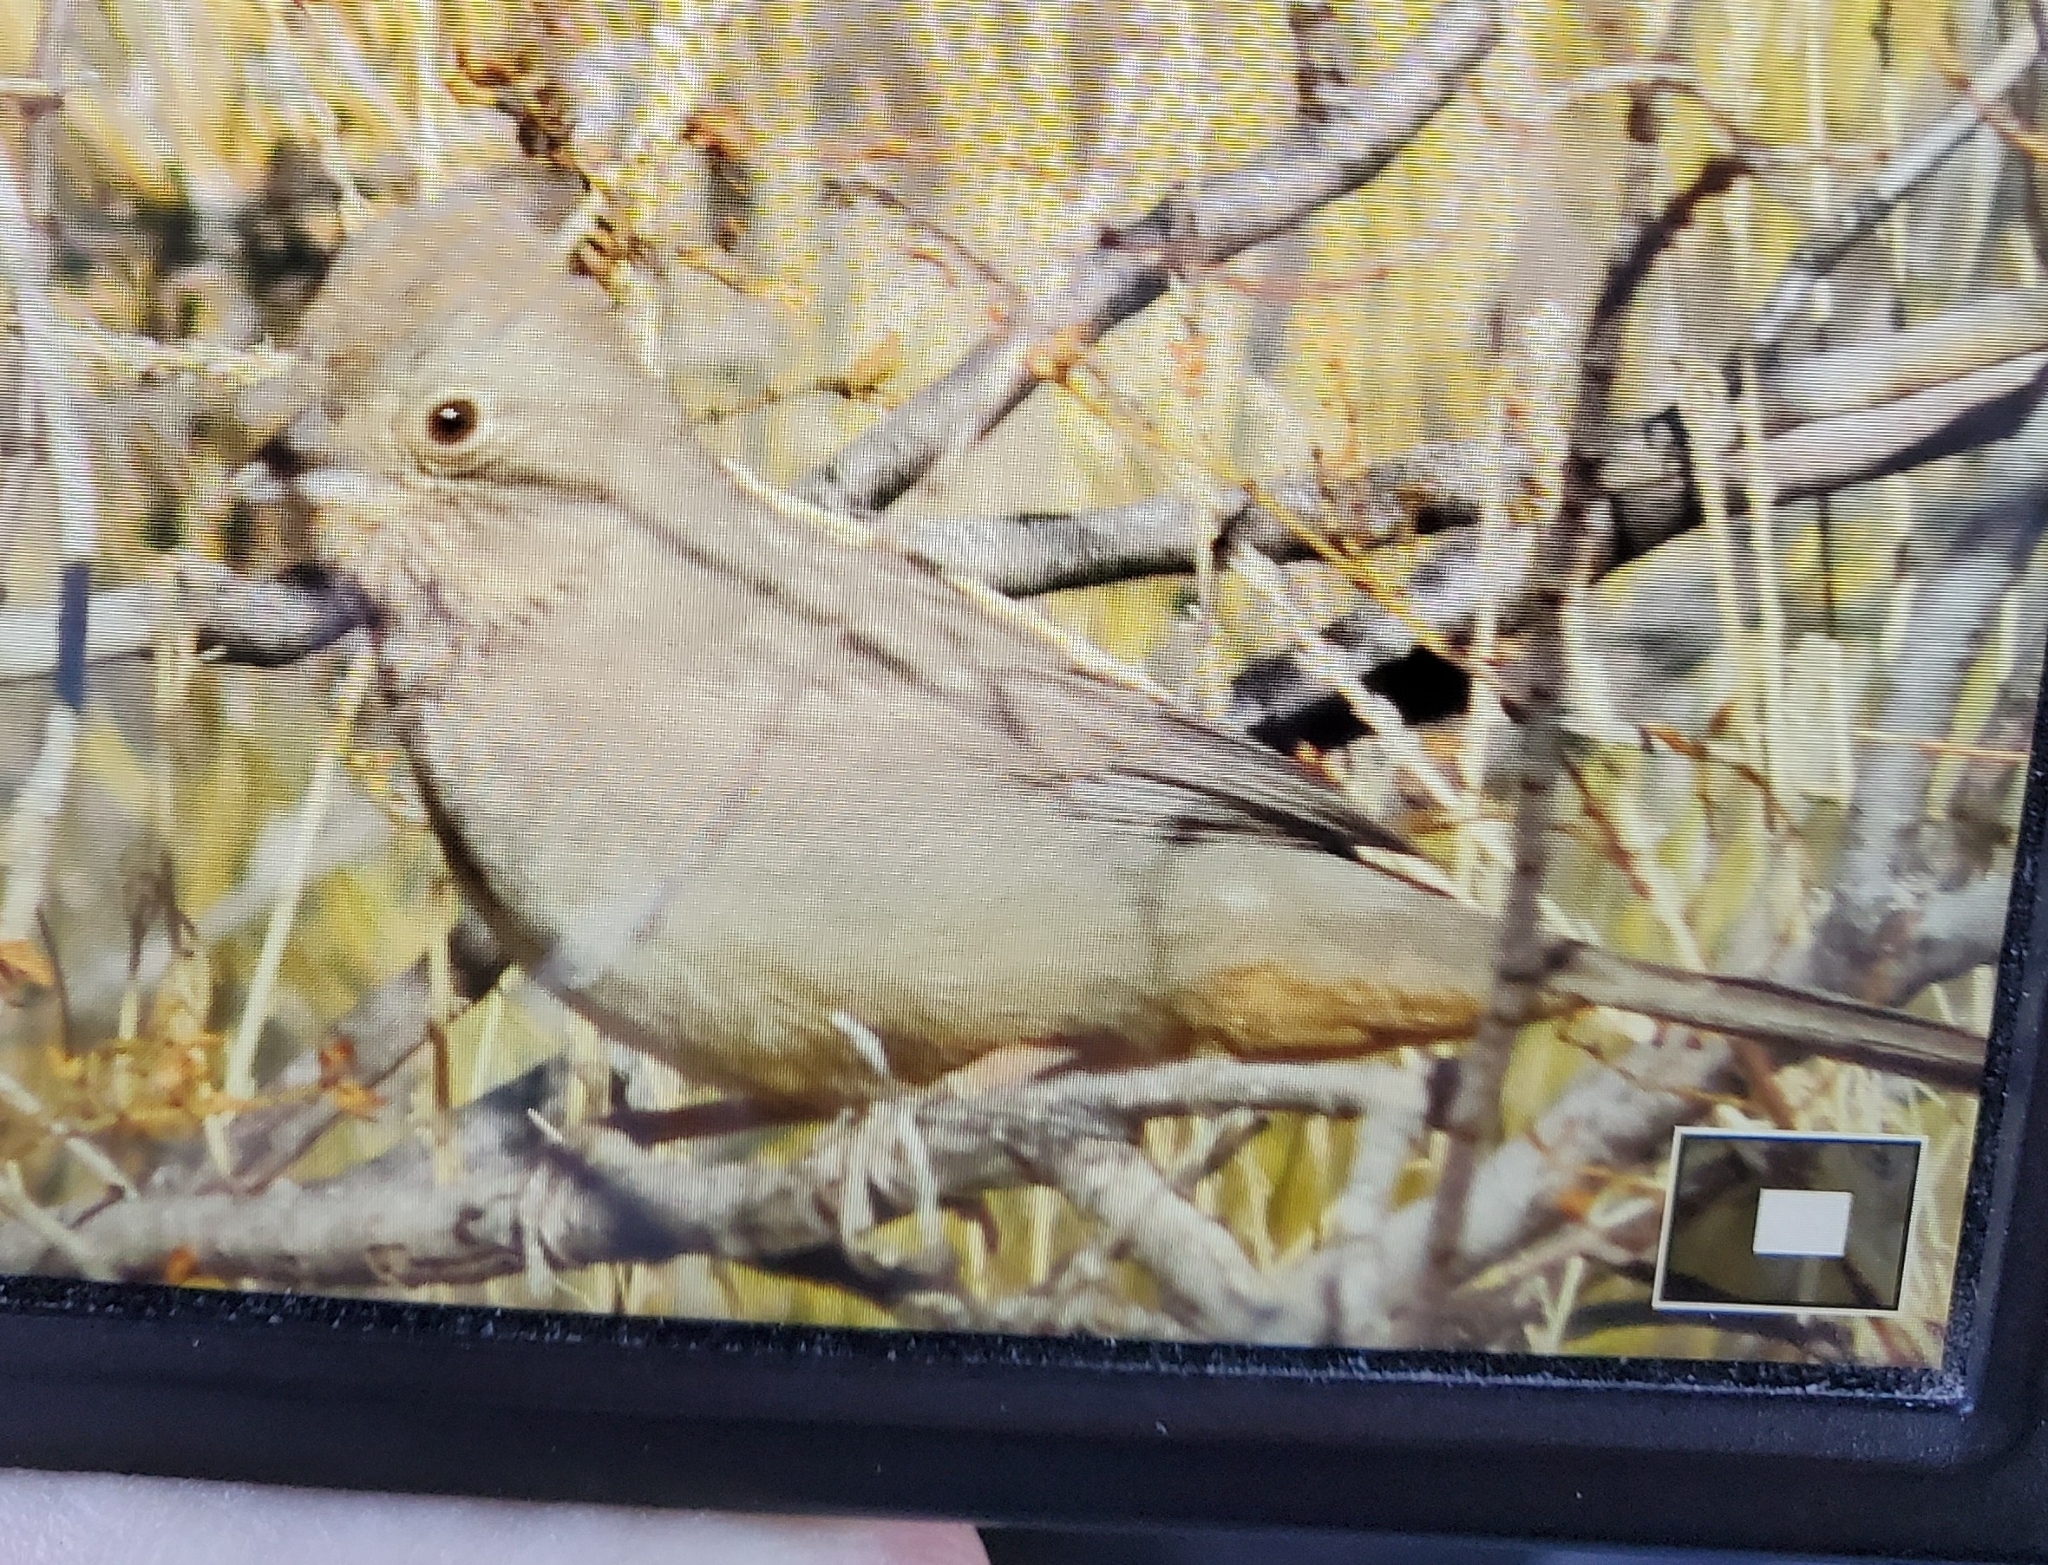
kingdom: Animalia
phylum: Chordata
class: Aves
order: Passeriformes
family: Passerellidae
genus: Melozone
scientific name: Melozone fusca
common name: Canyon towhee
